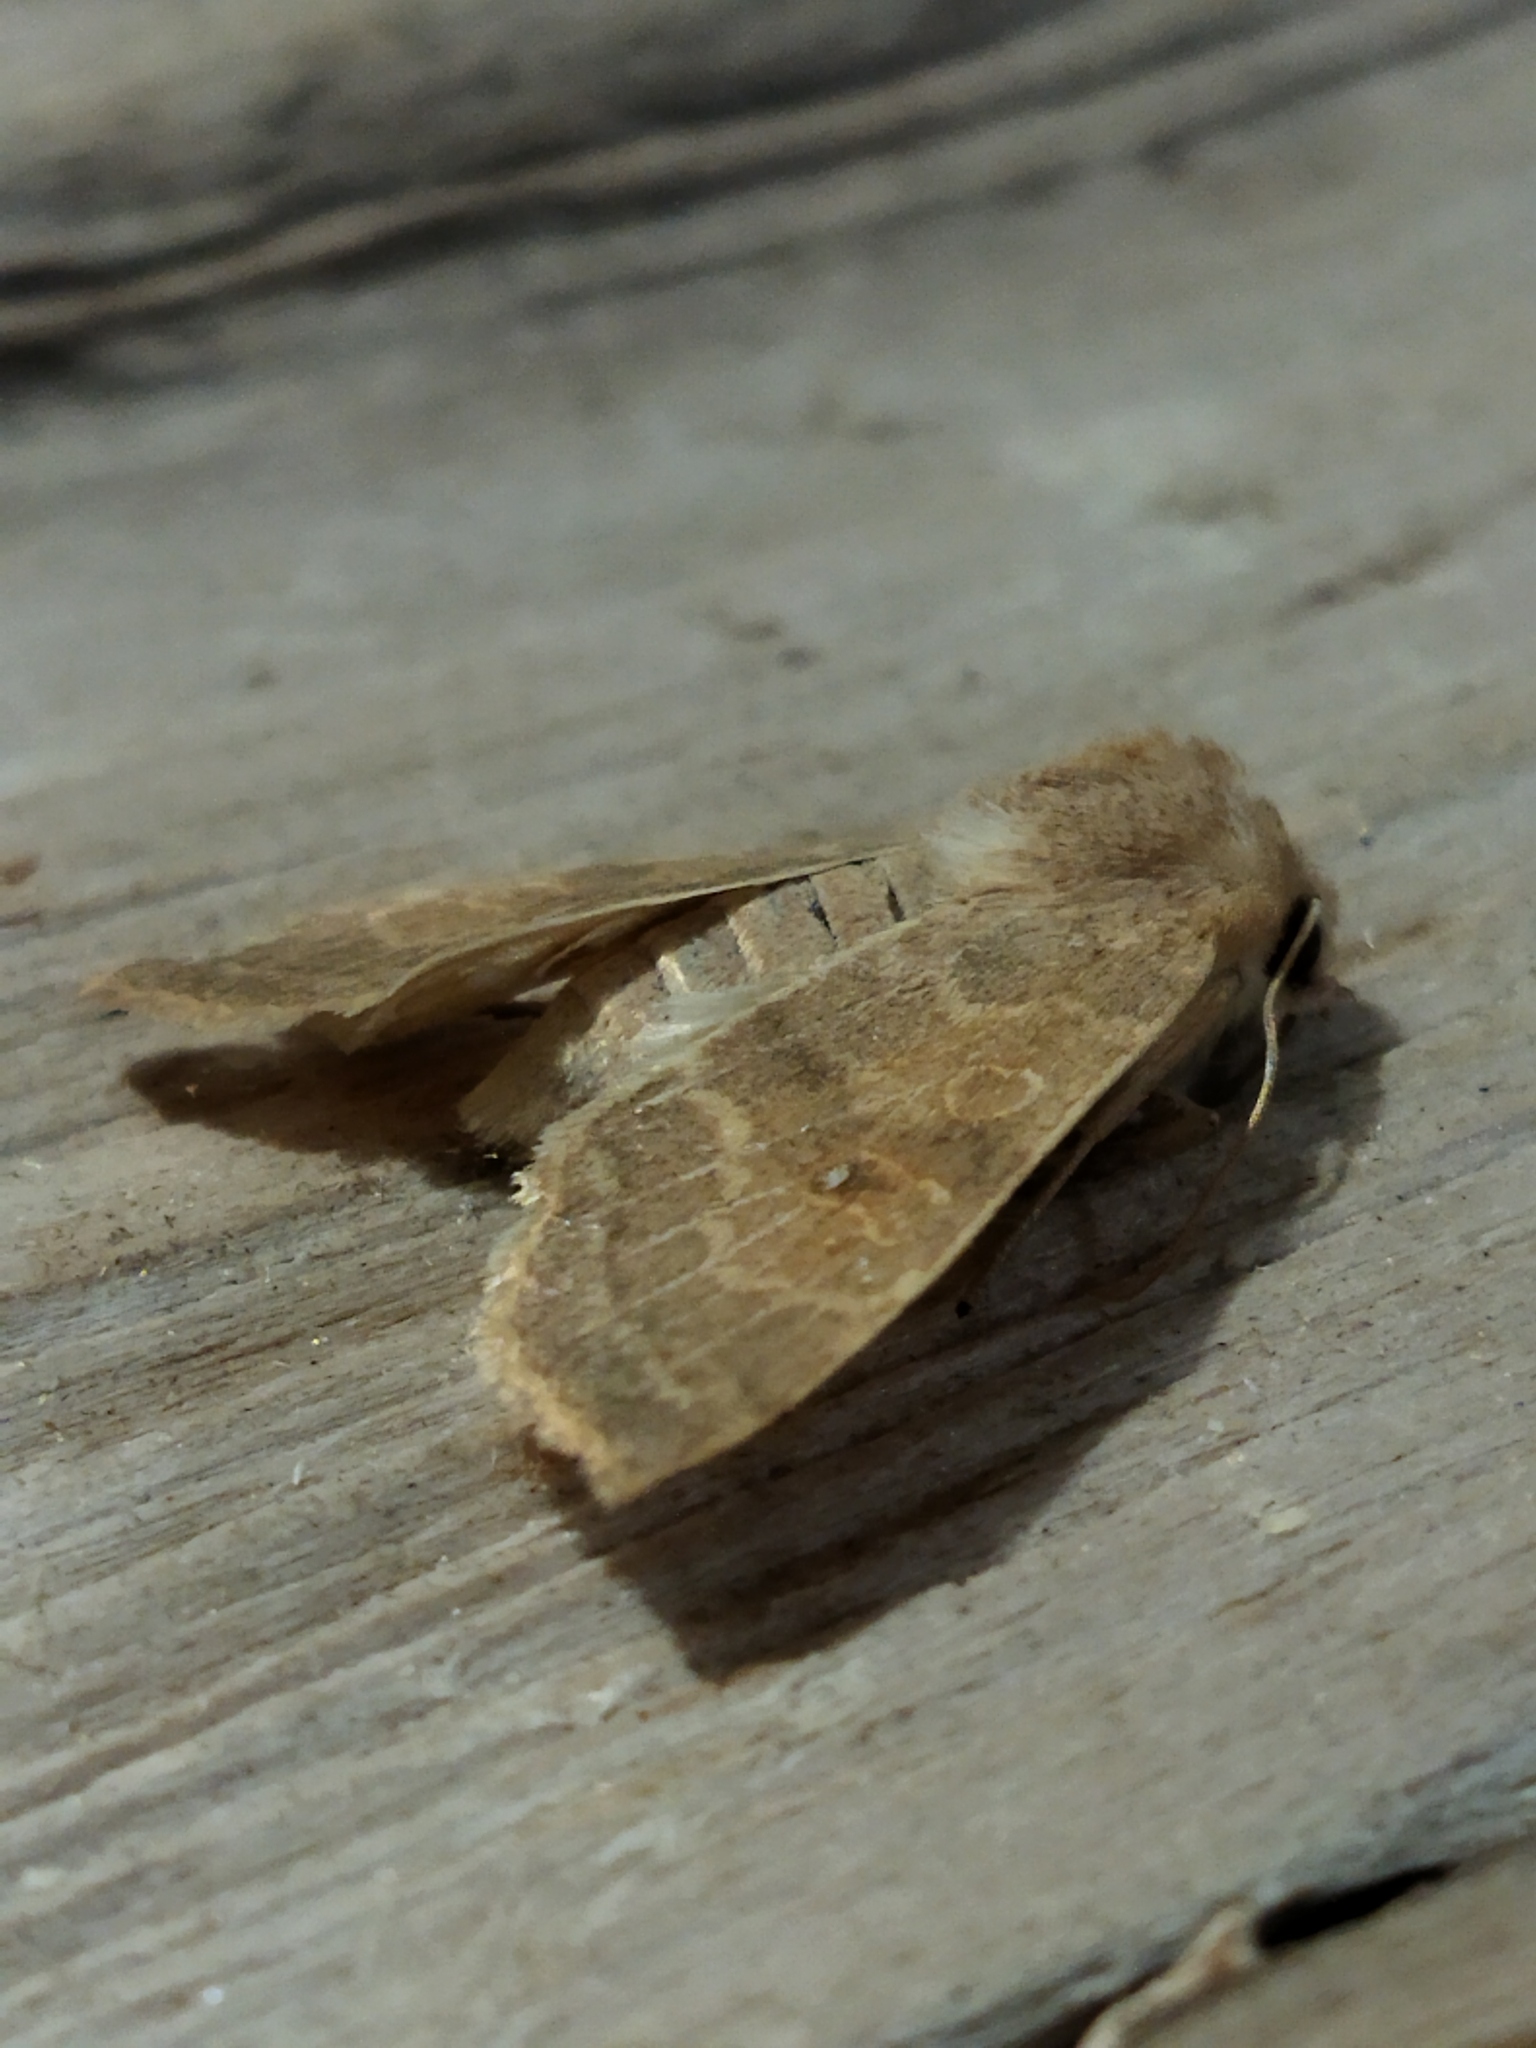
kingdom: Animalia
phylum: Arthropoda
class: Insecta
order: Lepidoptera
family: Noctuidae
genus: Xanthia
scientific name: Xanthia ocellaris
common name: Pale-lemon sallow
